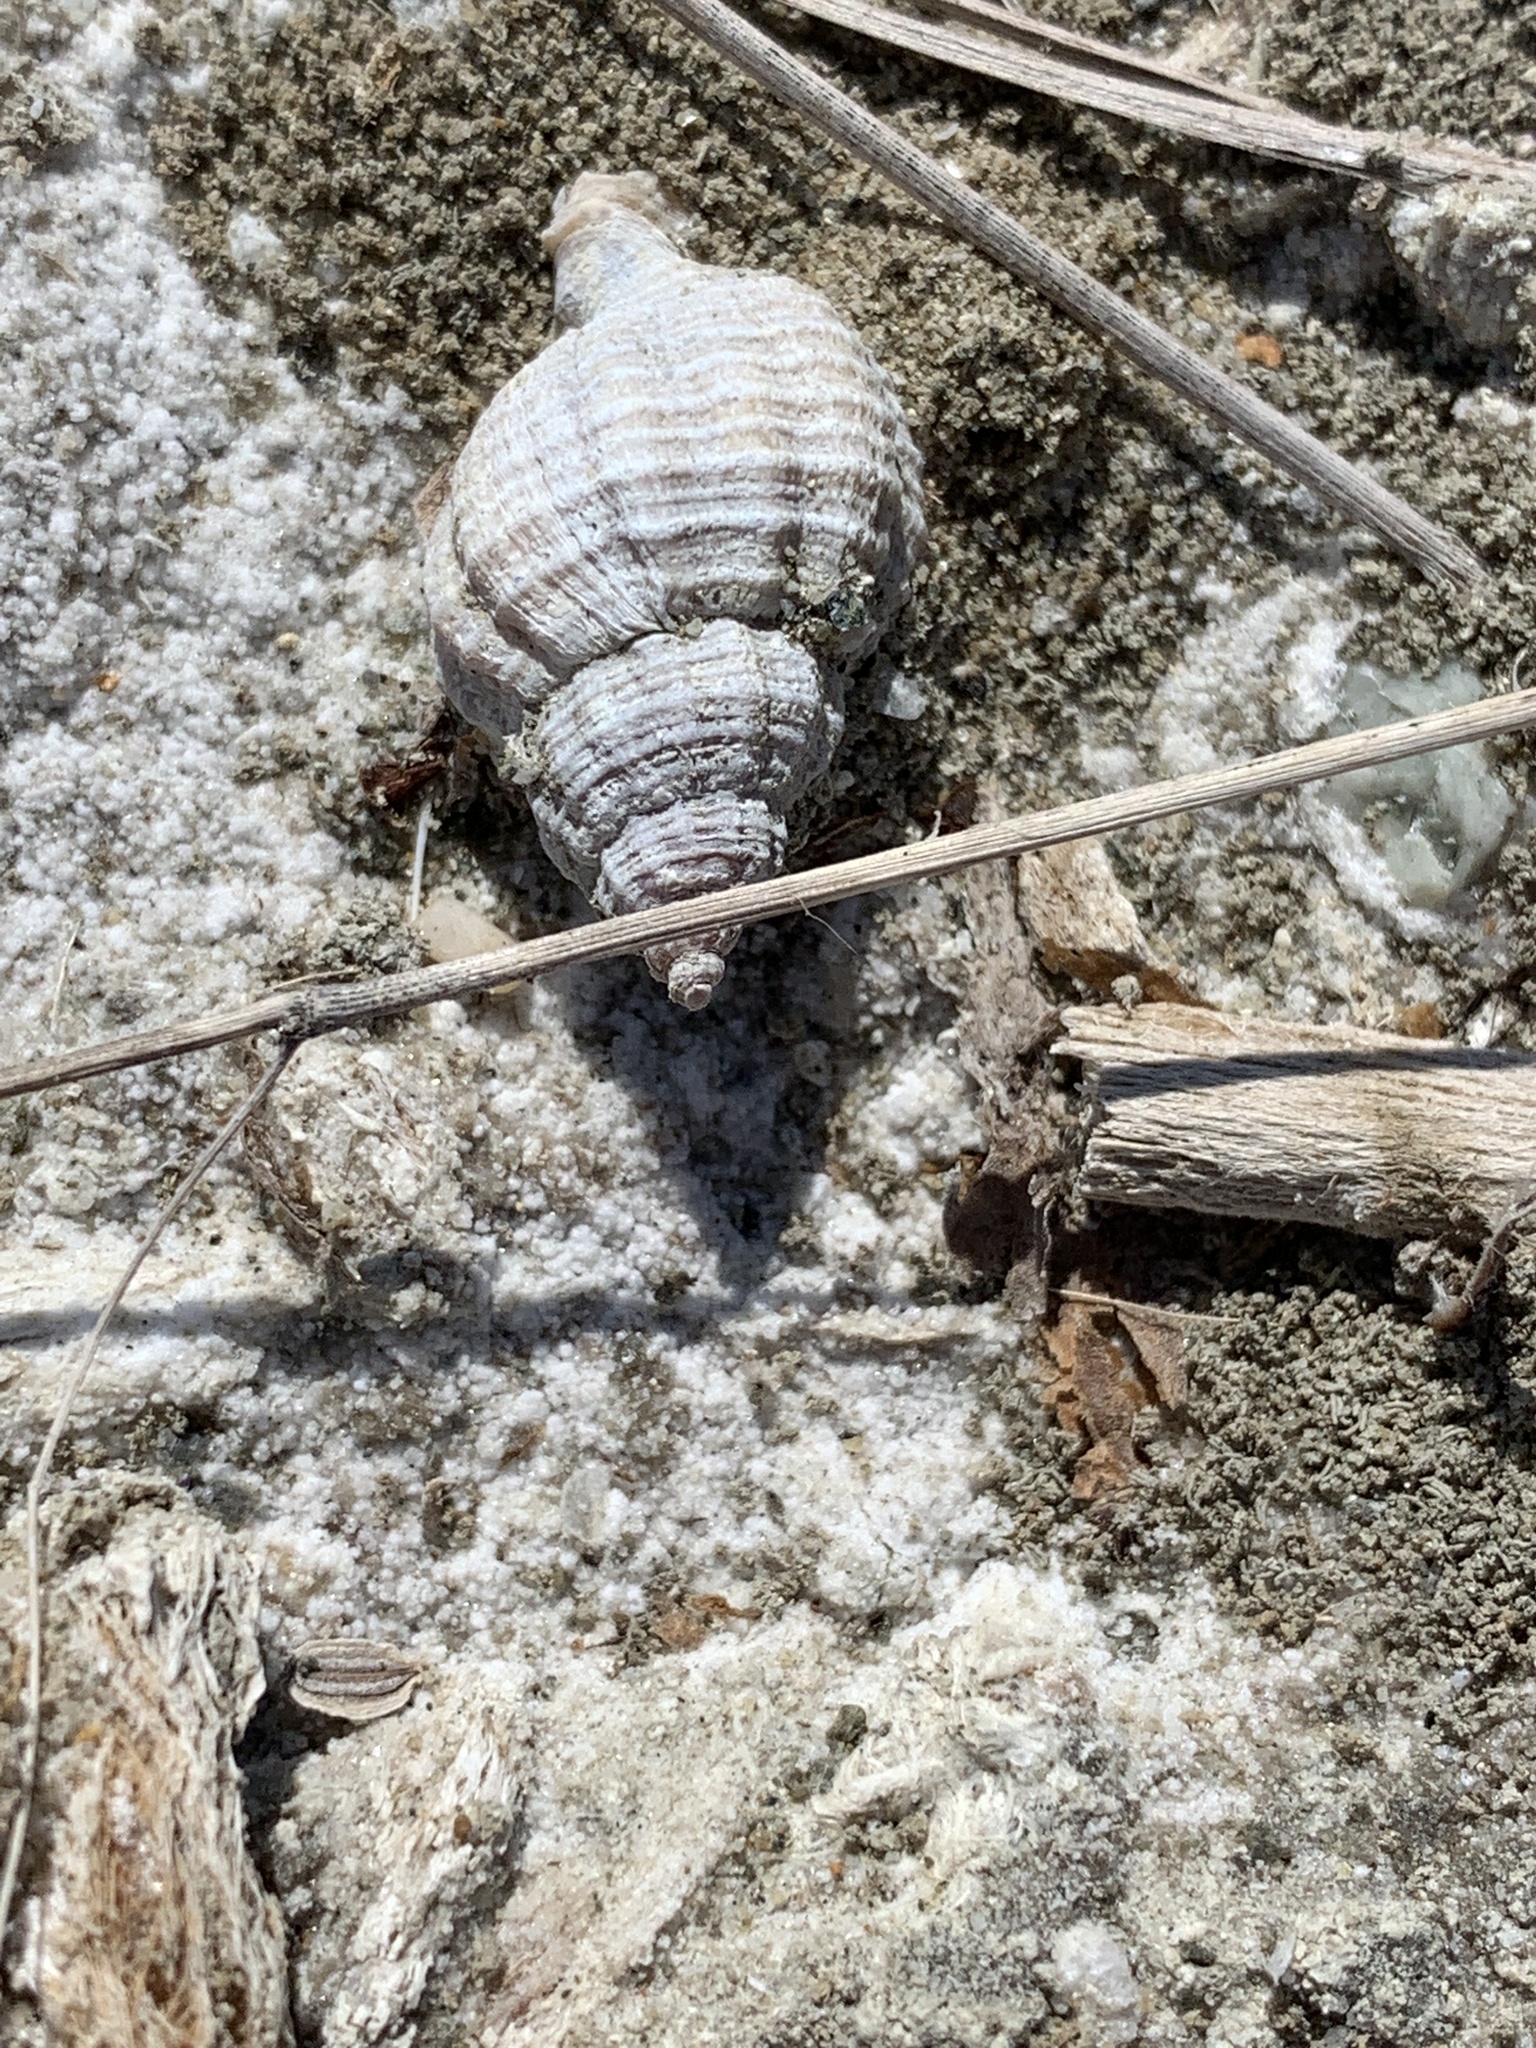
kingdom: Animalia
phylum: Mollusca
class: Gastropoda
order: Neogastropoda
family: Muricidae
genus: Urosalpinx
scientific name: Urosalpinx cinerea
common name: American sting winkle
